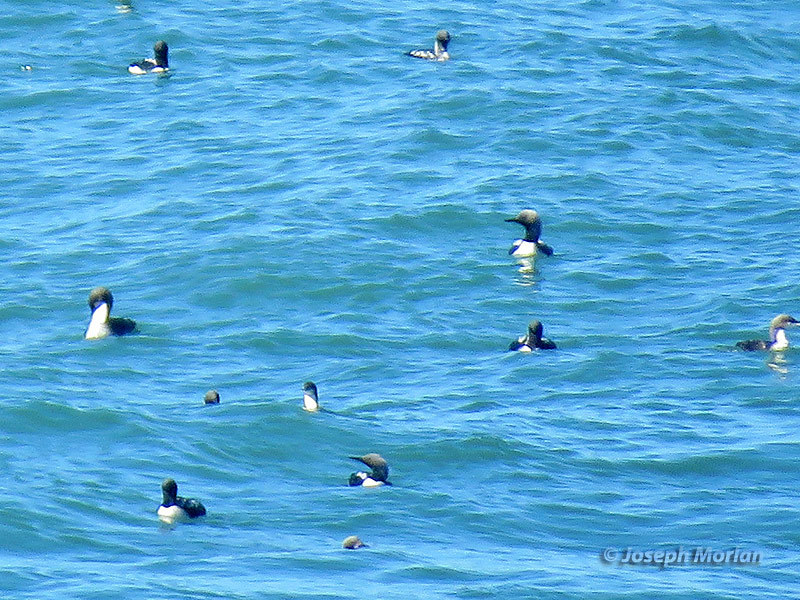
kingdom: Animalia
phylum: Chordata
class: Aves
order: Gaviiformes
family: Gaviidae
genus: Gavia
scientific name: Gavia pacifica
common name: Pacific loon
